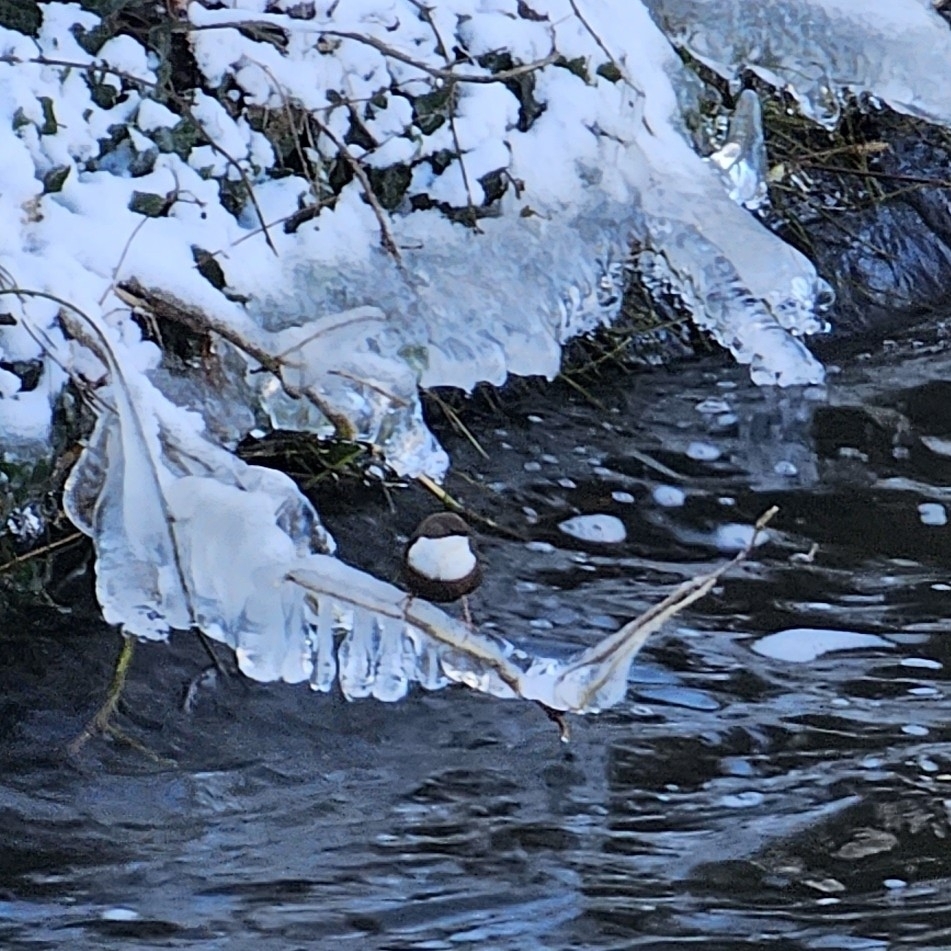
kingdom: Animalia
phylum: Chordata
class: Aves
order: Passeriformes
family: Cinclidae
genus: Cinclus
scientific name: Cinclus cinclus
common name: White-throated dipper
